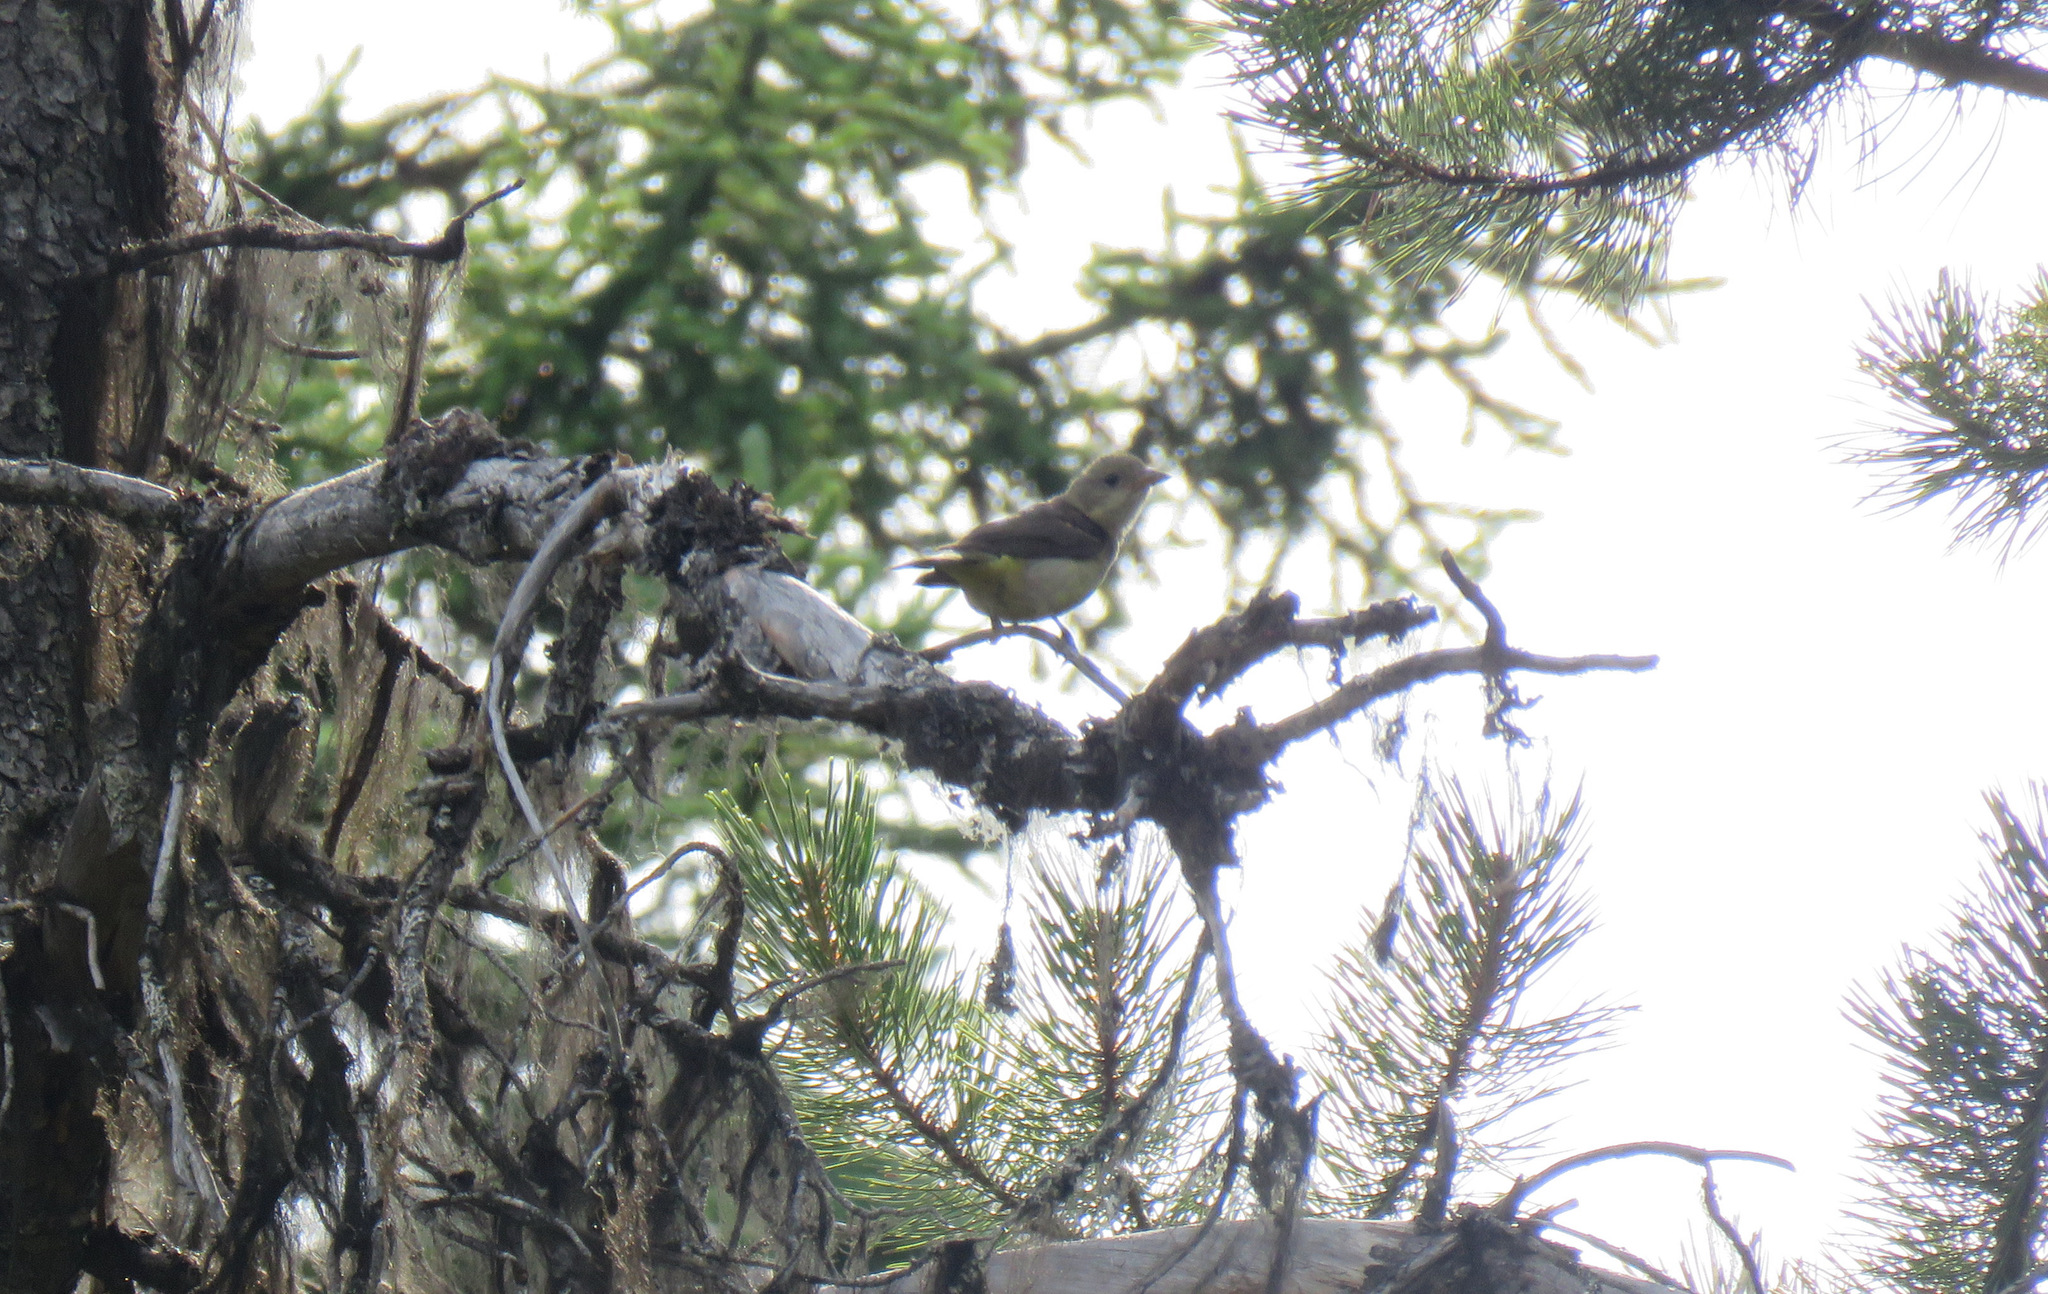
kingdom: Animalia
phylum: Chordata
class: Aves
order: Passeriformes
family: Cardinalidae
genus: Piranga
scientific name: Piranga ludoviciana
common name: Western tanager
